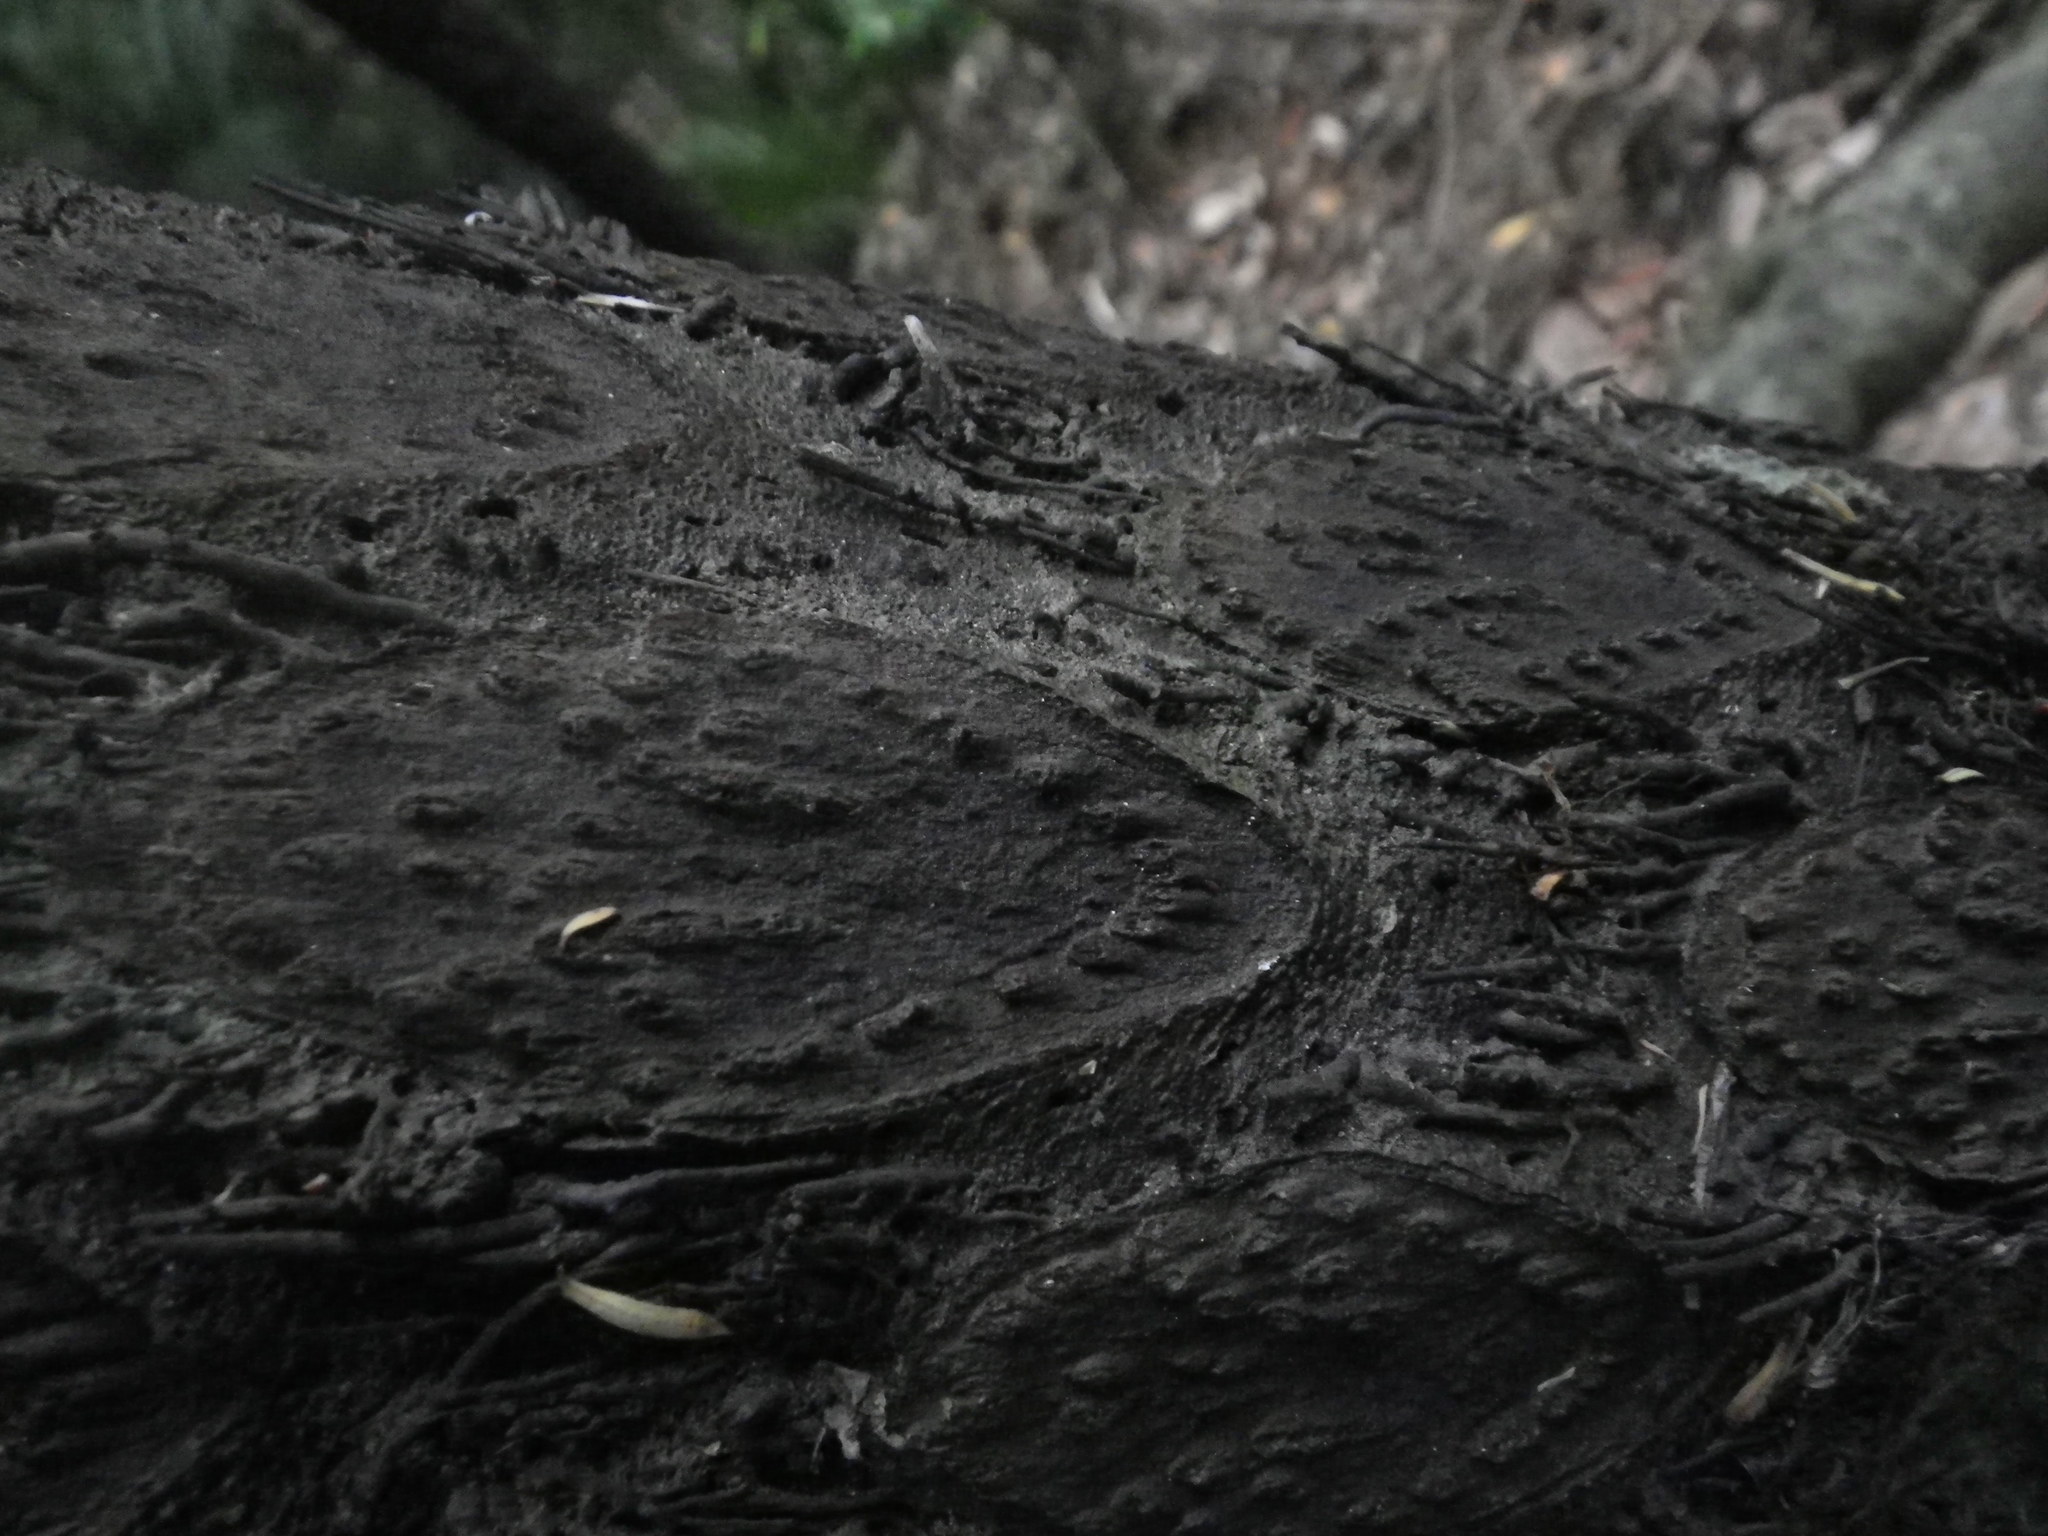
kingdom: Plantae
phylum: Tracheophyta
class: Polypodiopsida
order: Cyatheales
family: Cyatheaceae
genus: Sphaeropteris
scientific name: Sphaeropteris medullaris
